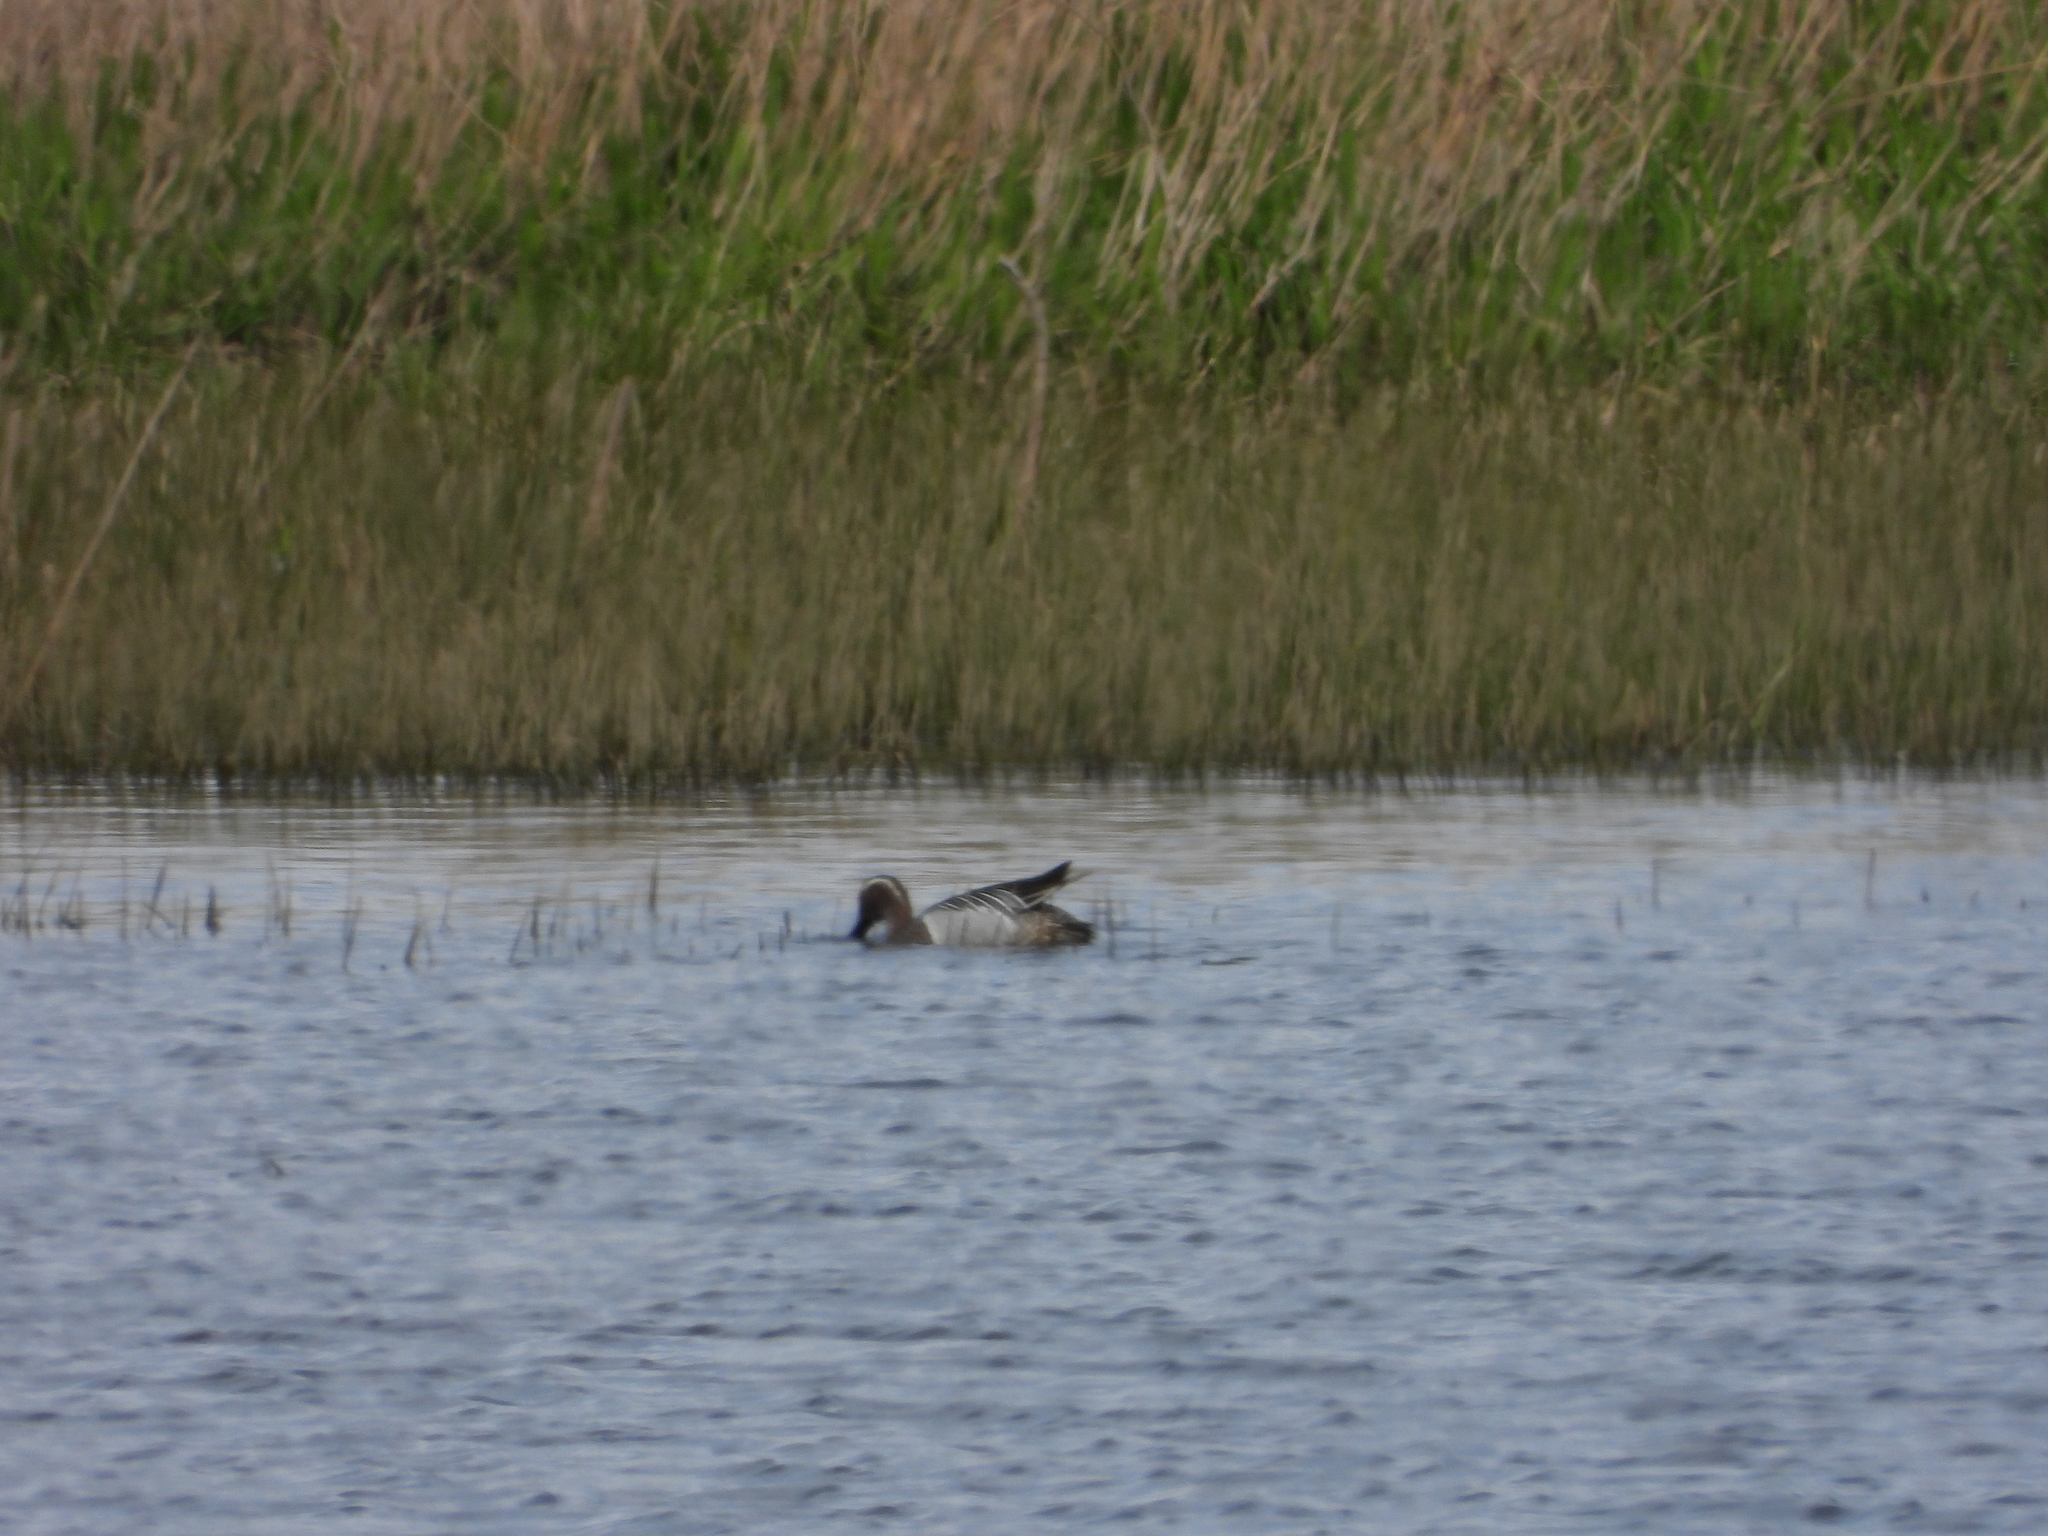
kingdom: Animalia
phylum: Chordata
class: Aves
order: Anseriformes
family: Anatidae
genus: Spatula
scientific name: Spatula querquedula
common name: Garganey
